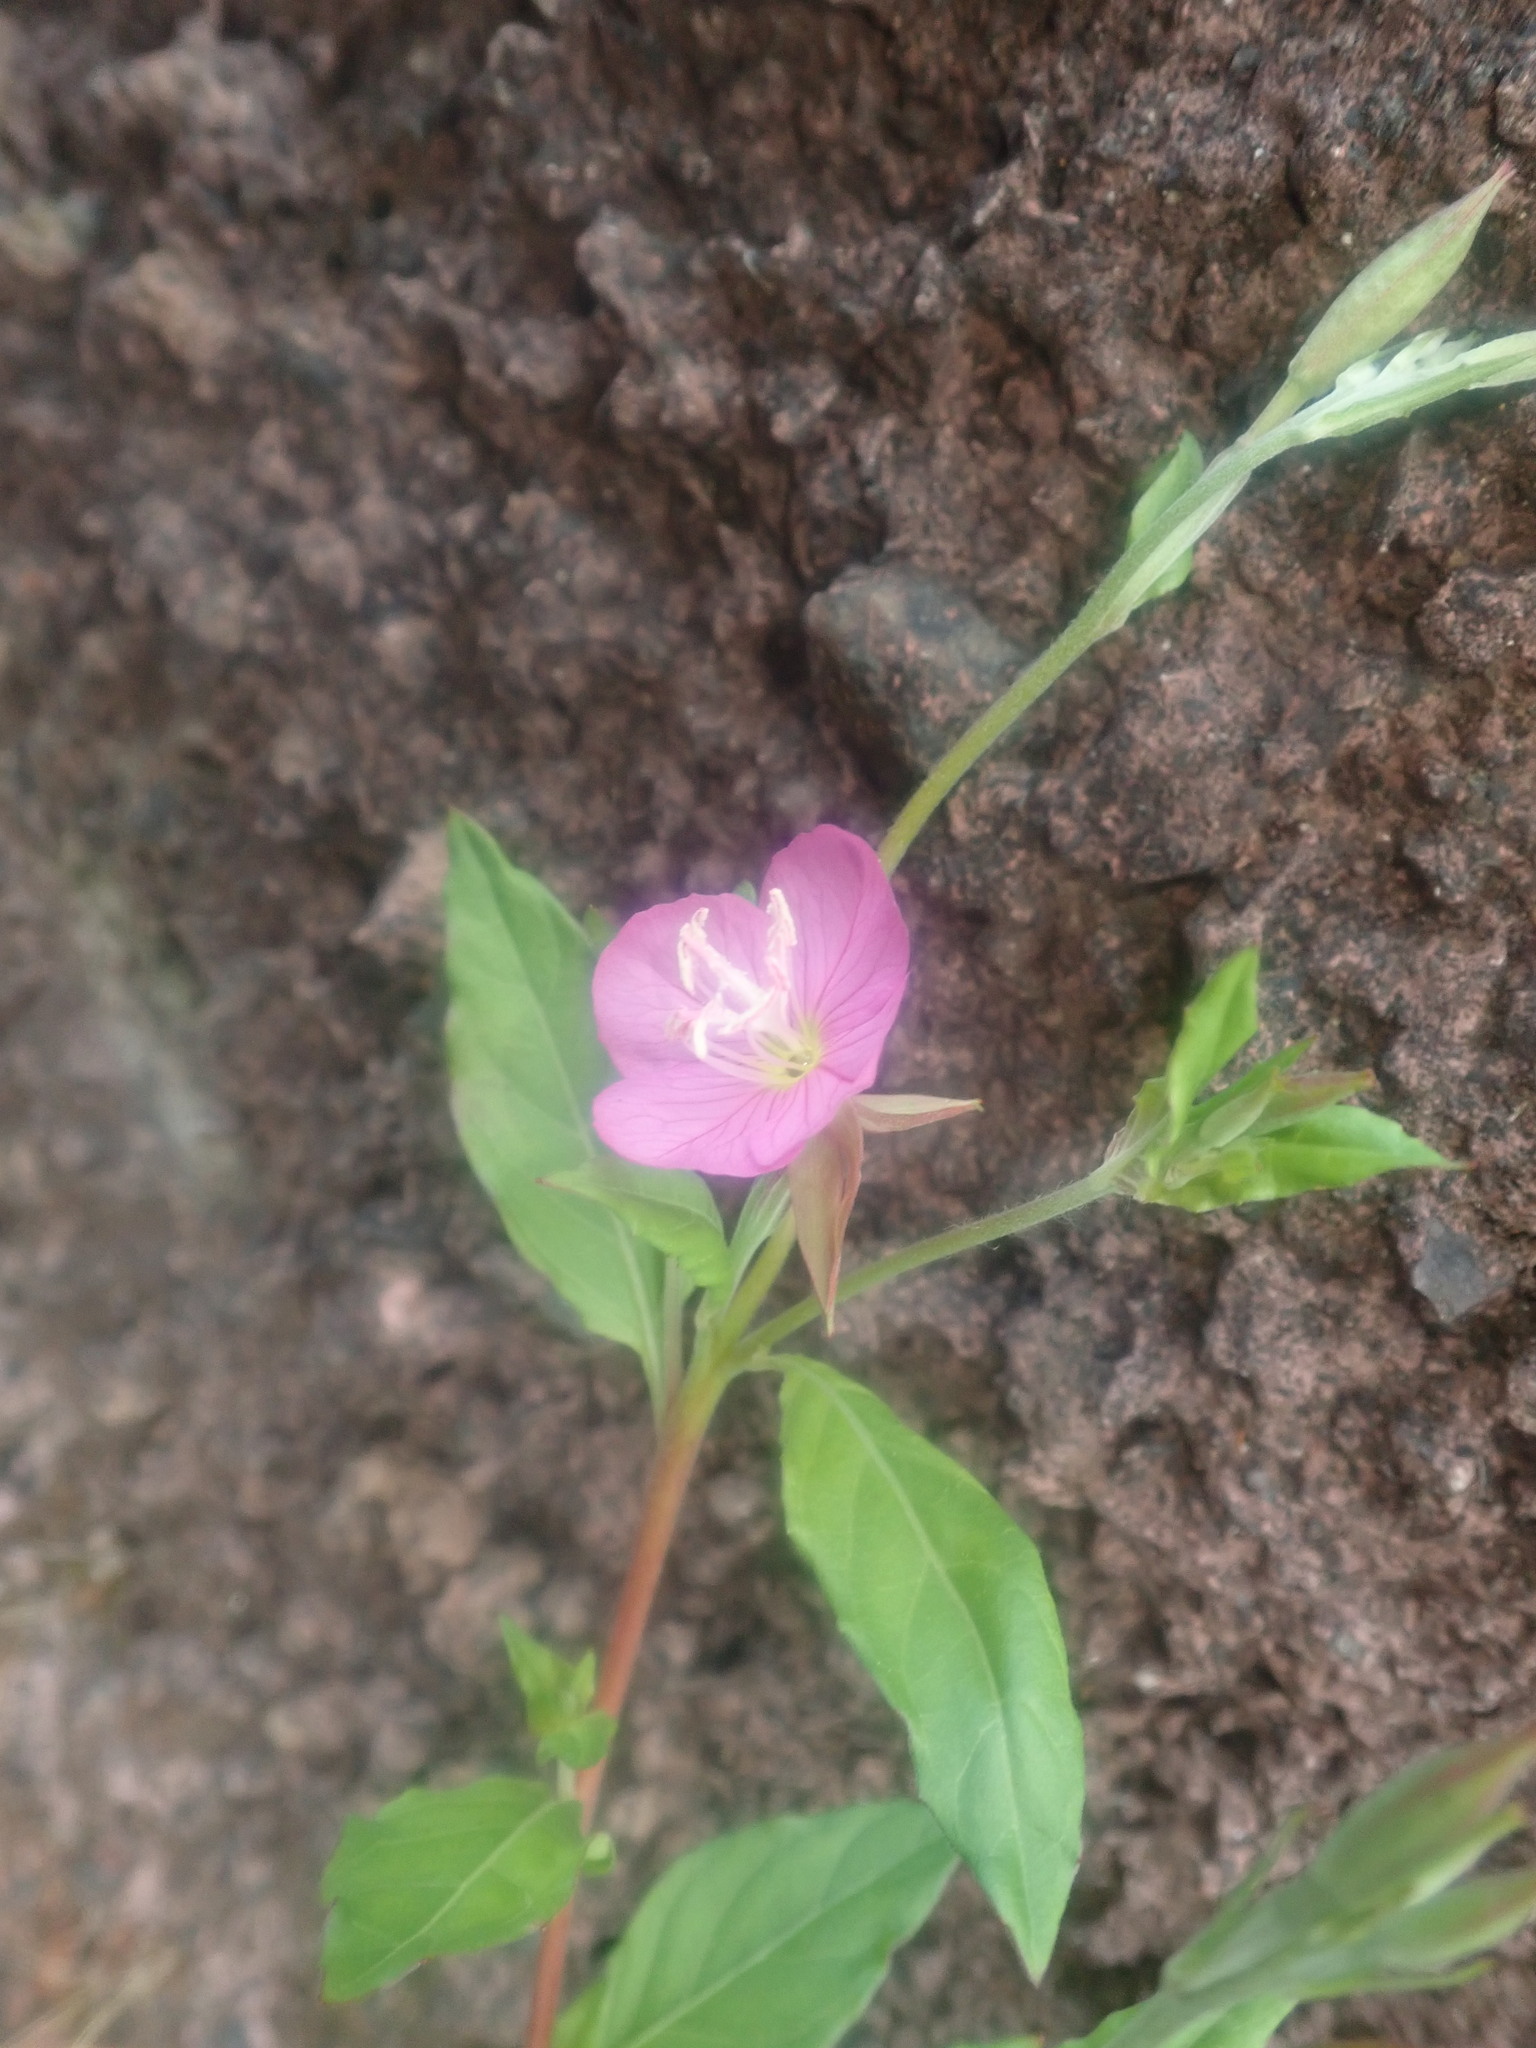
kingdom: Plantae
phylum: Tracheophyta
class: Magnoliopsida
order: Myrtales
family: Onagraceae
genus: Oenothera
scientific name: Oenothera rosea
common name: Rosy evening-primrose
